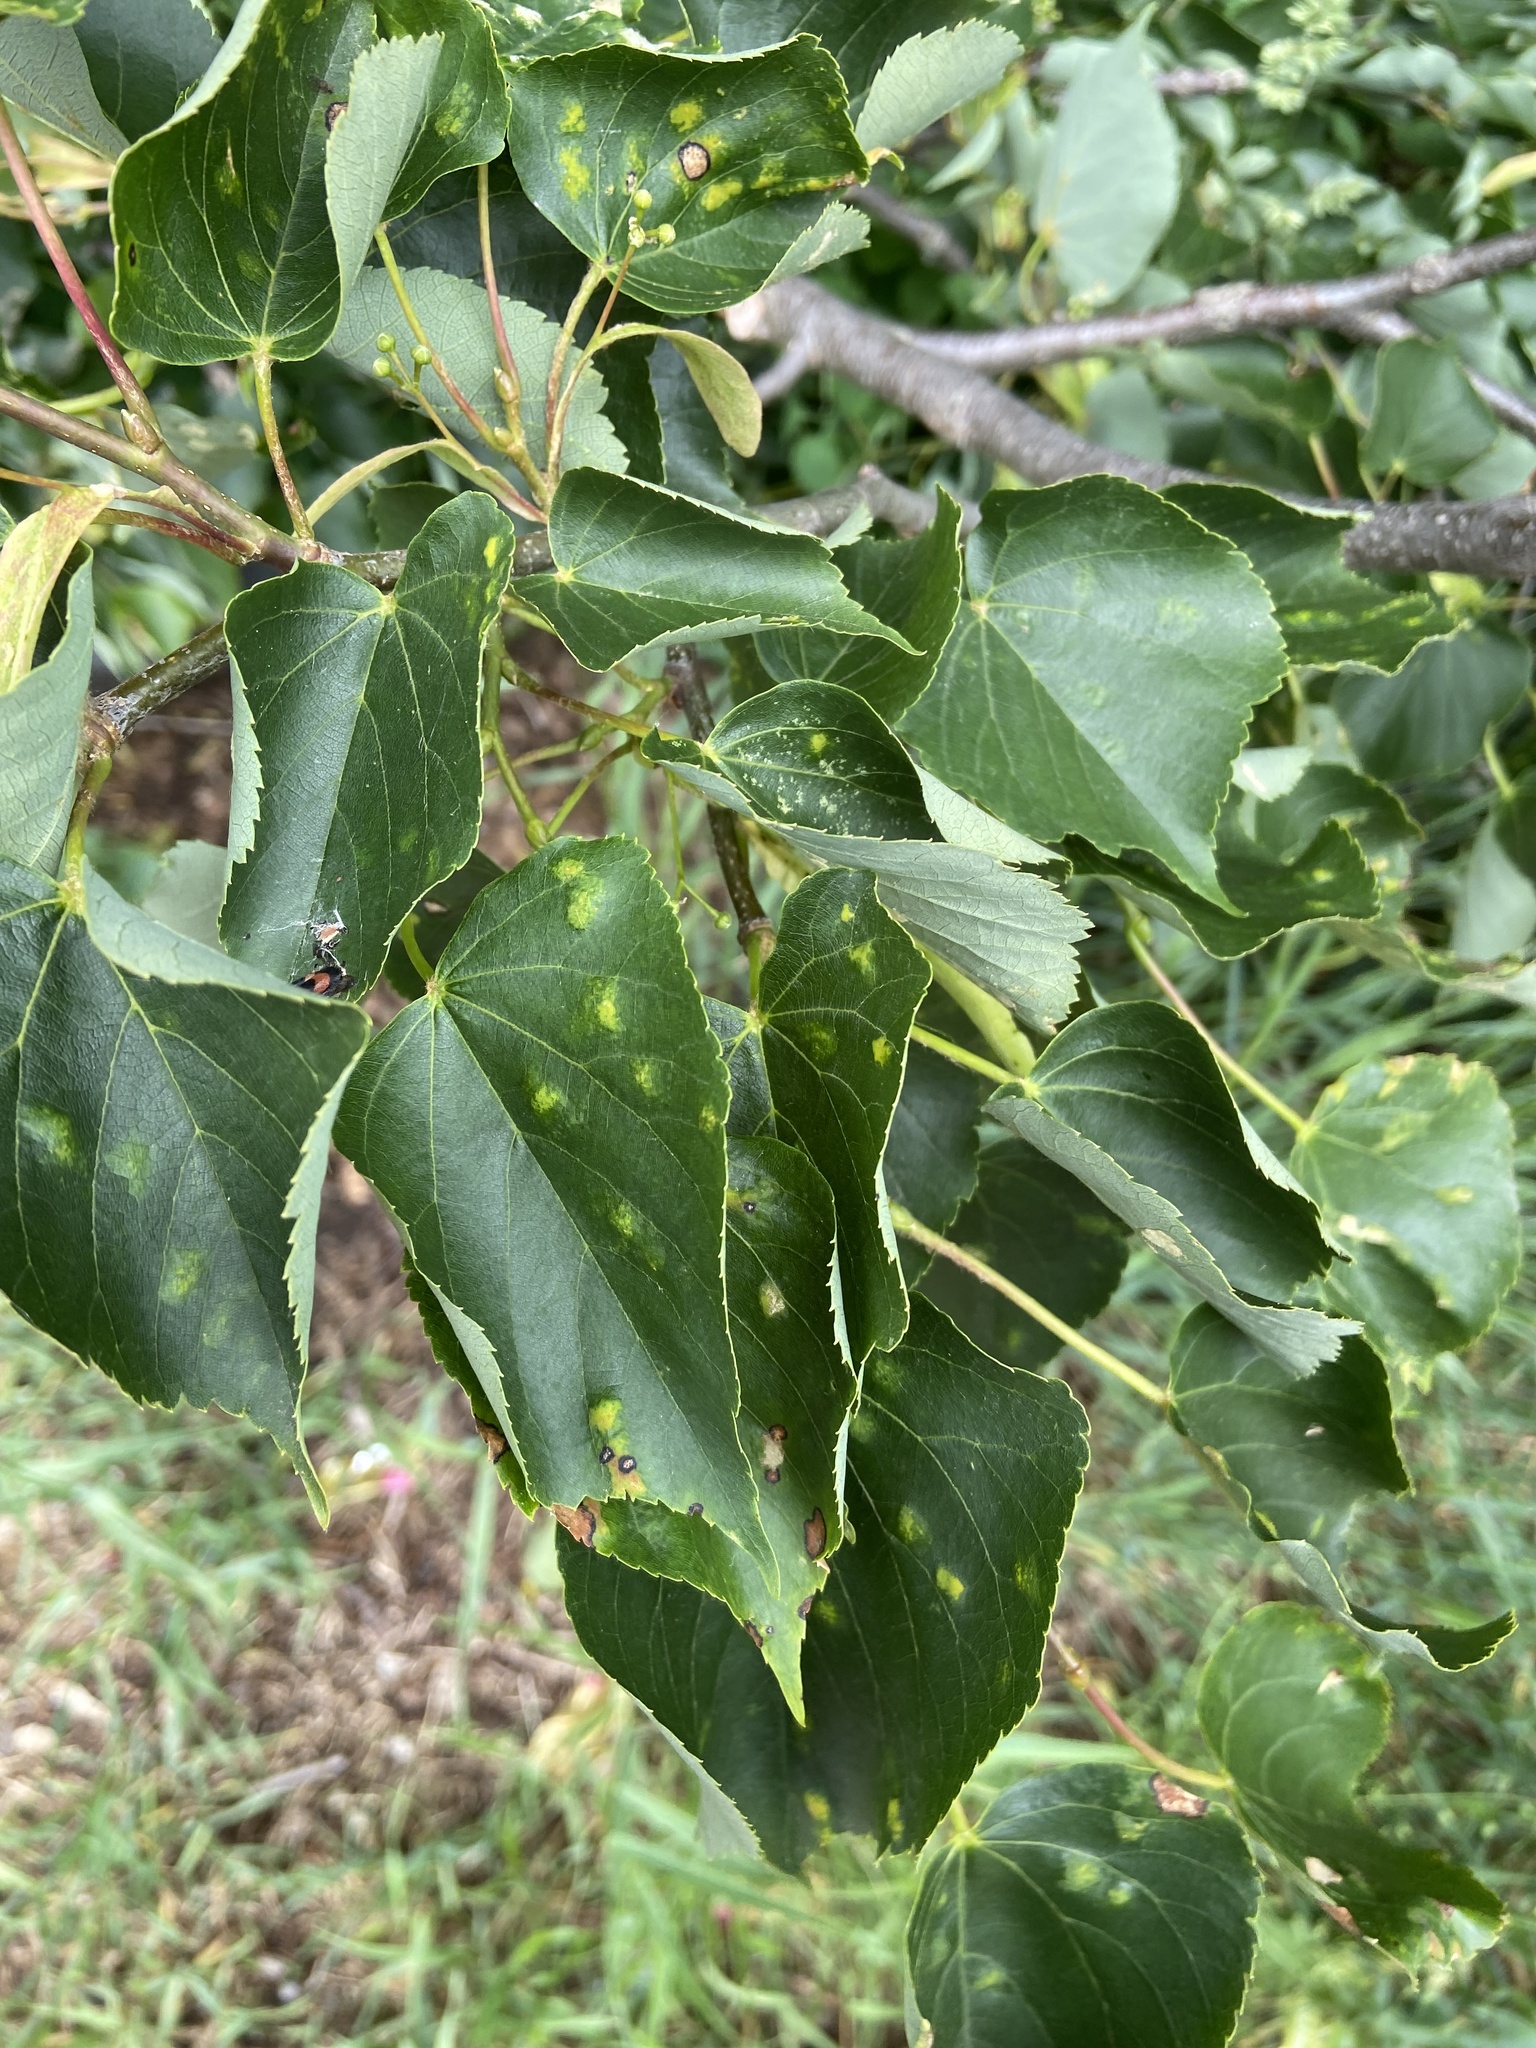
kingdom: Animalia
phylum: Arthropoda
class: Arachnida
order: Trombidiformes
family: Eriophyidae
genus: Eriophyes
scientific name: Eriophyes leiosoma
